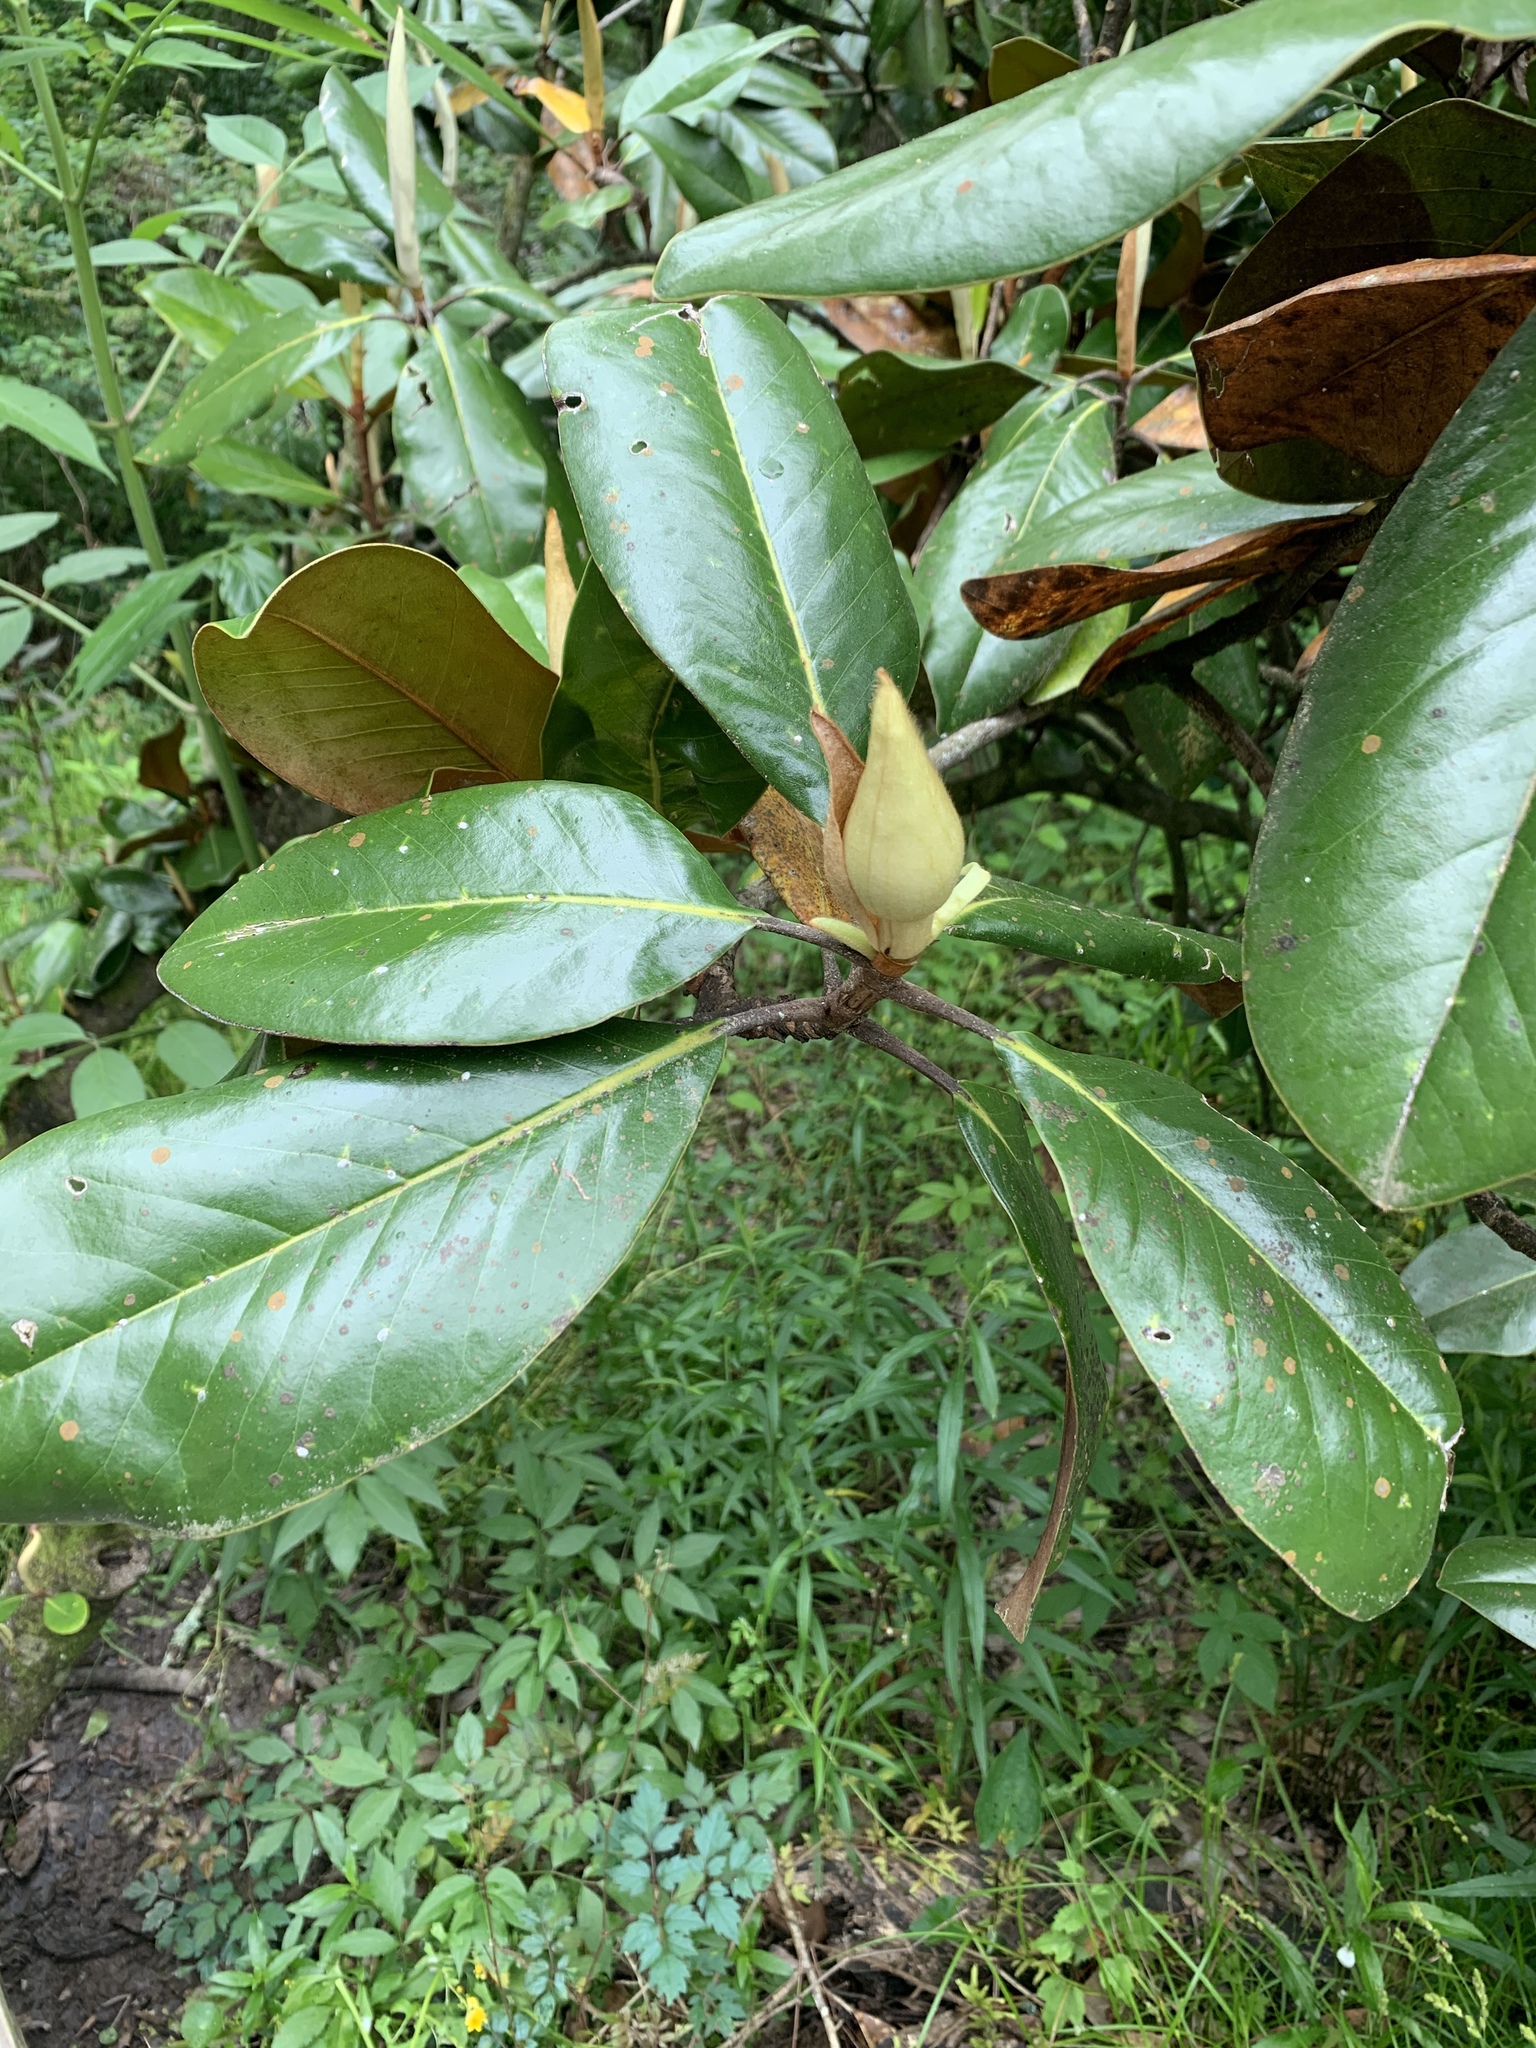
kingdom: Plantae
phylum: Tracheophyta
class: Magnoliopsida
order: Magnoliales
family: Magnoliaceae
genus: Magnolia
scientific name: Magnolia grandiflora
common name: Southern magnolia
